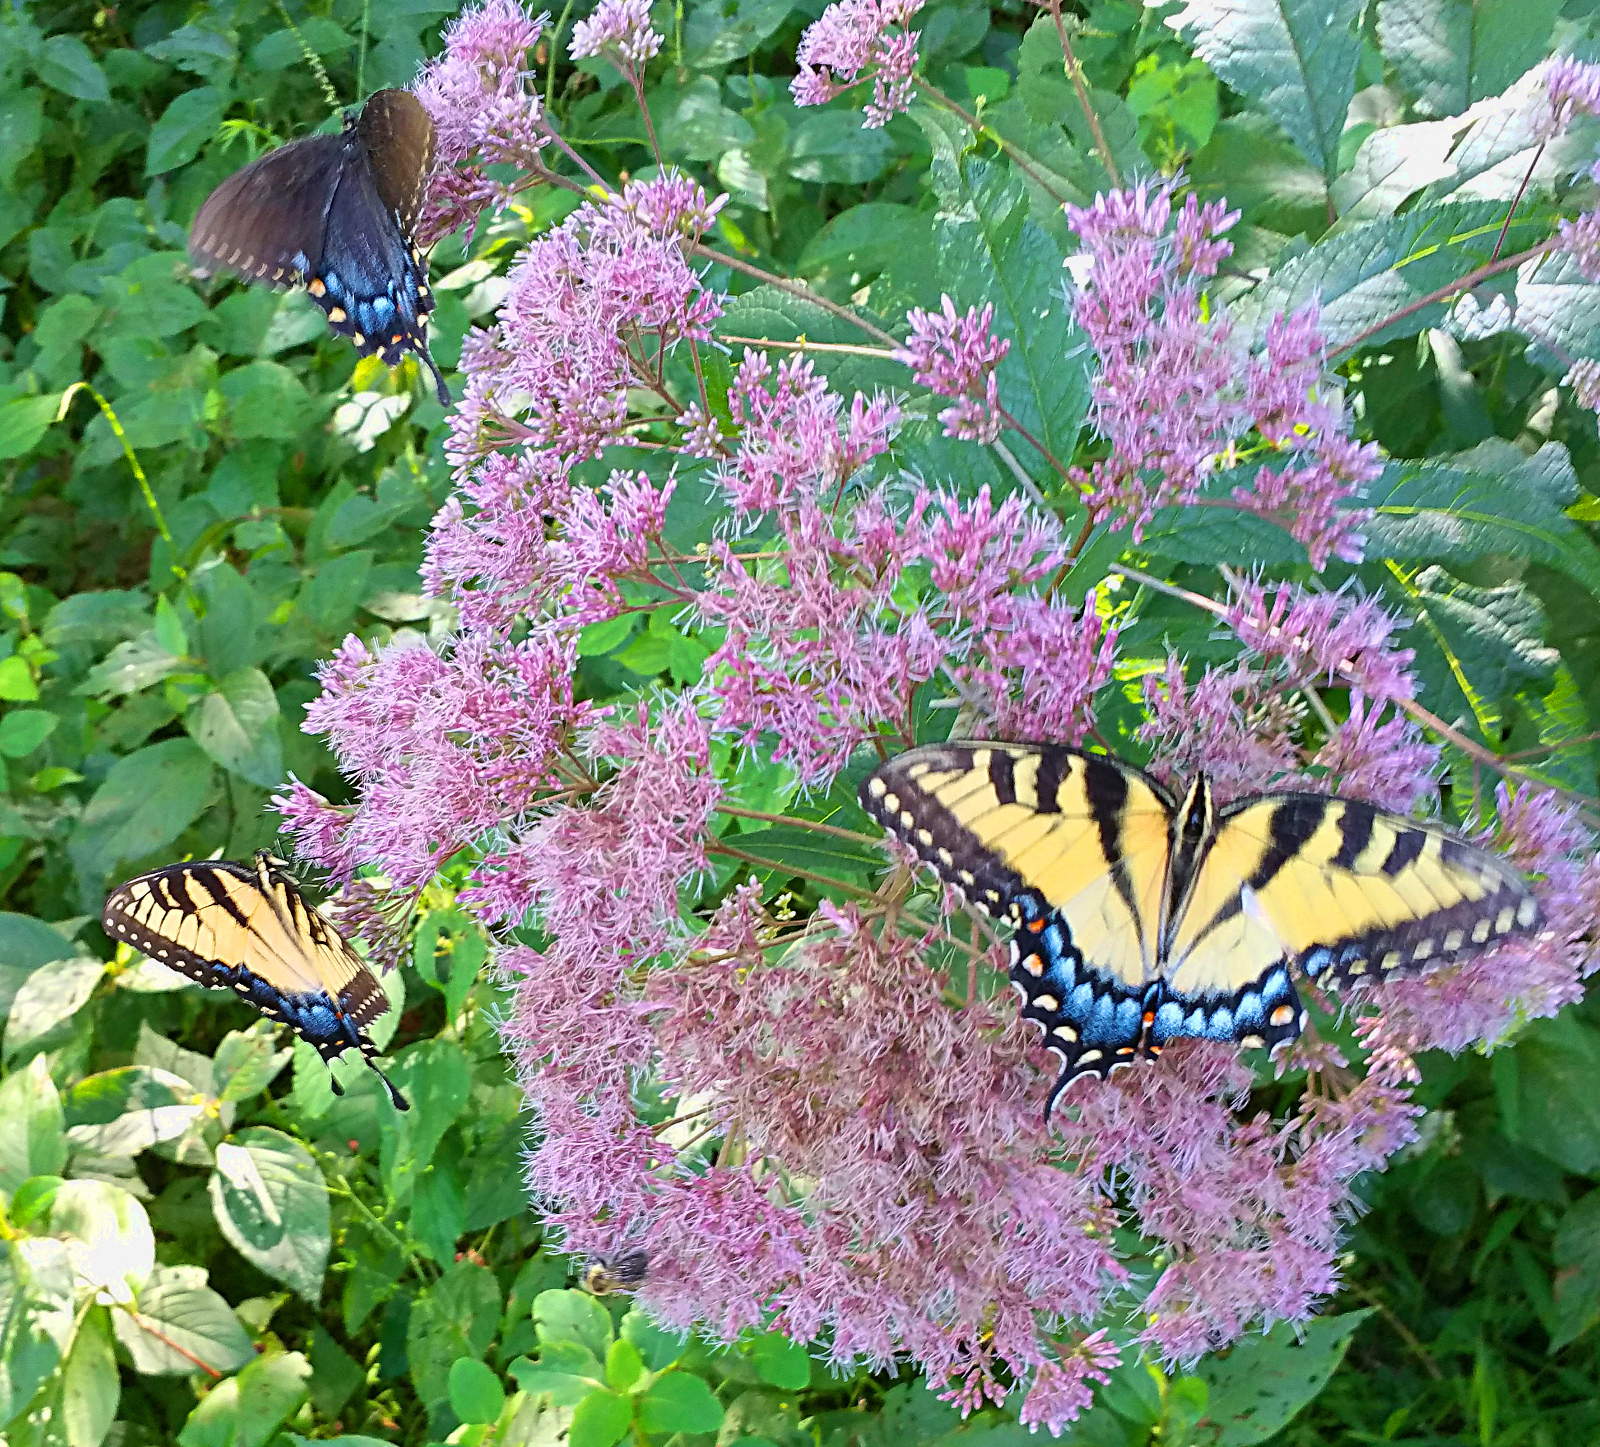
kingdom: Animalia
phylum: Arthropoda
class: Insecta
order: Lepidoptera
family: Papilionidae
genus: Papilio
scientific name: Papilio glaucus
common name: Tiger swallowtail
